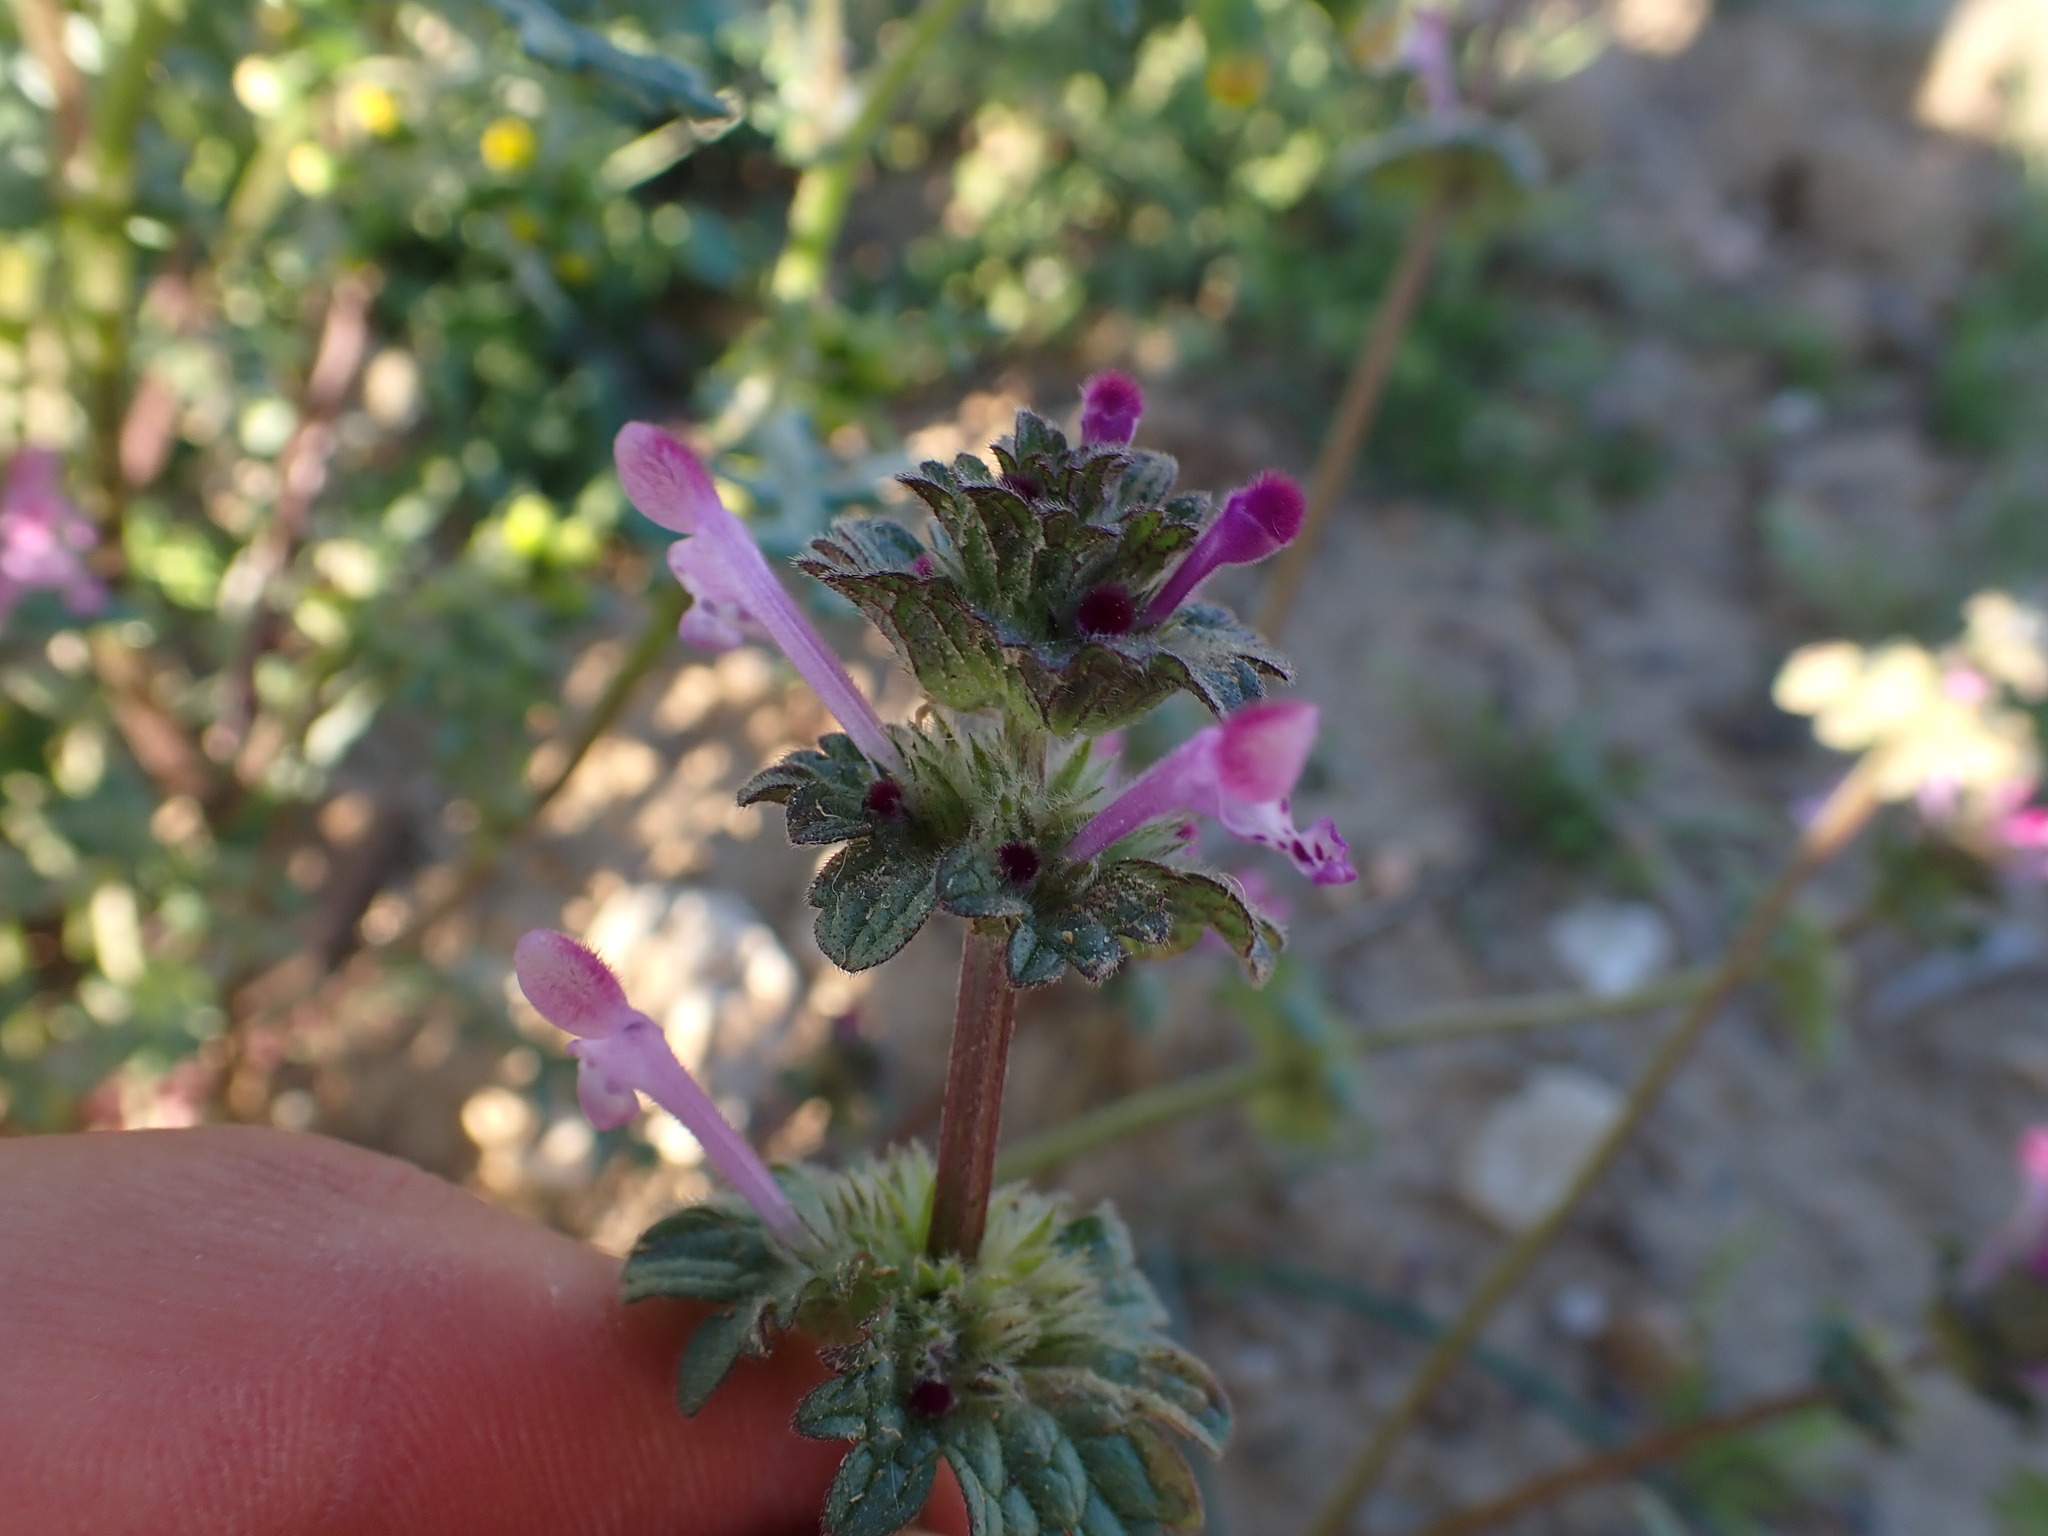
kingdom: Plantae
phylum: Tracheophyta
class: Magnoliopsida
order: Lamiales
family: Lamiaceae
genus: Lamium
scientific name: Lamium amplexicaule
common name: Henbit dead-nettle
